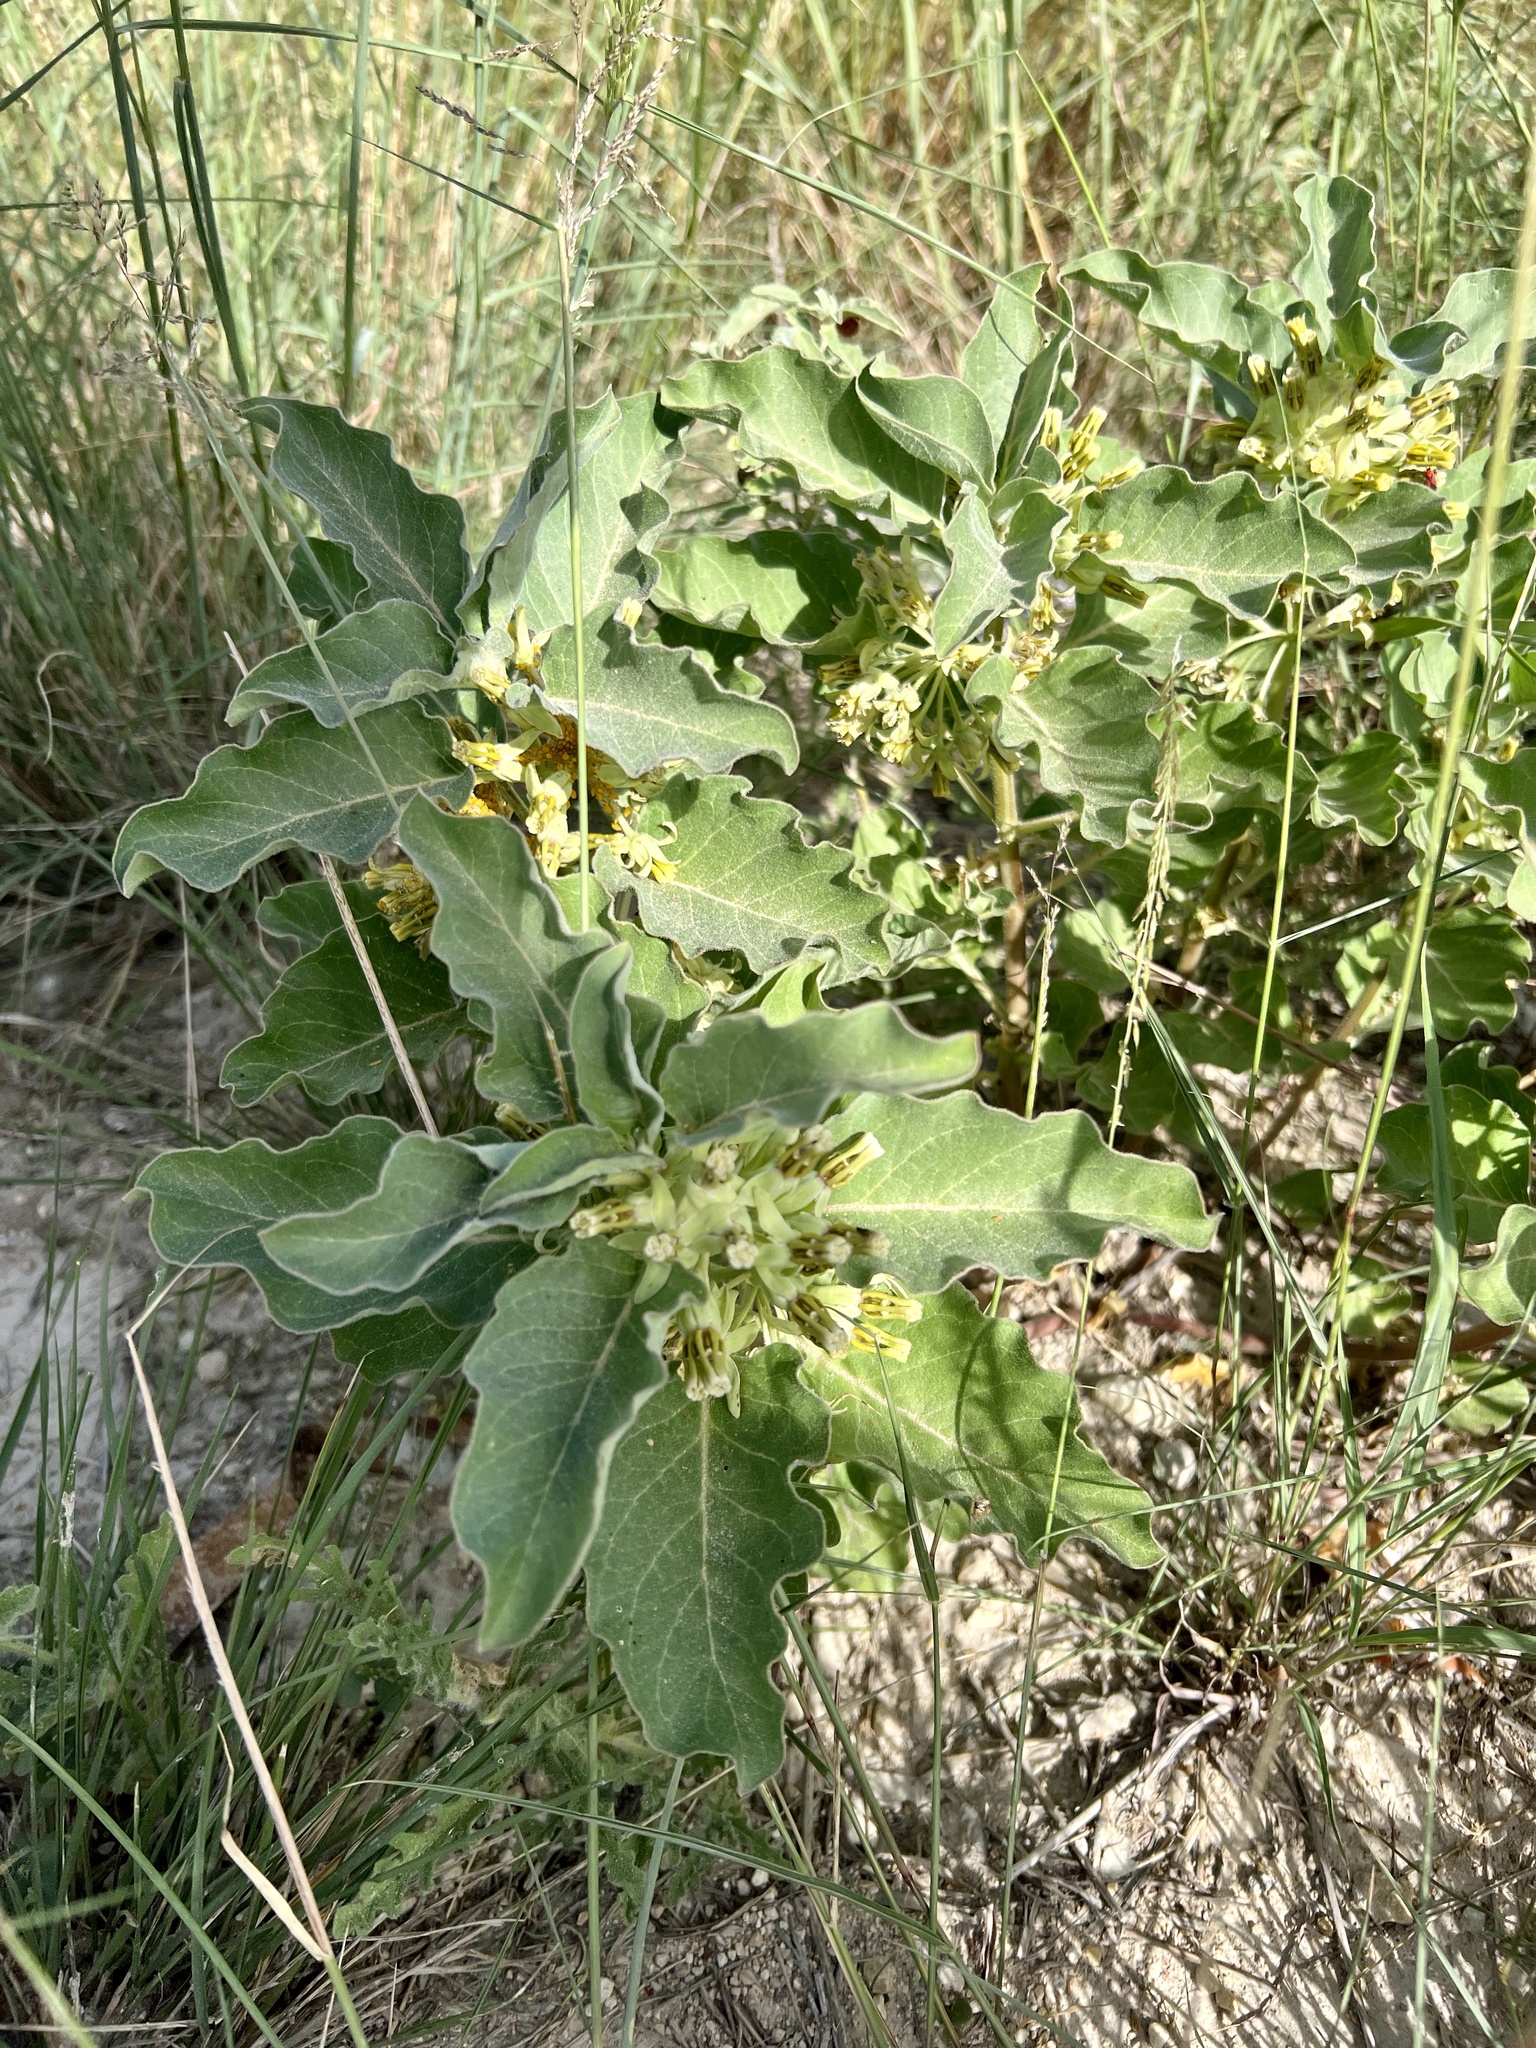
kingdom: Plantae
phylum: Tracheophyta
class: Magnoliopsida
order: Gentianales
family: Apocynaceae
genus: Asclepias
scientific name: Asclepias oenotheroides
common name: Zizotes milkweed
